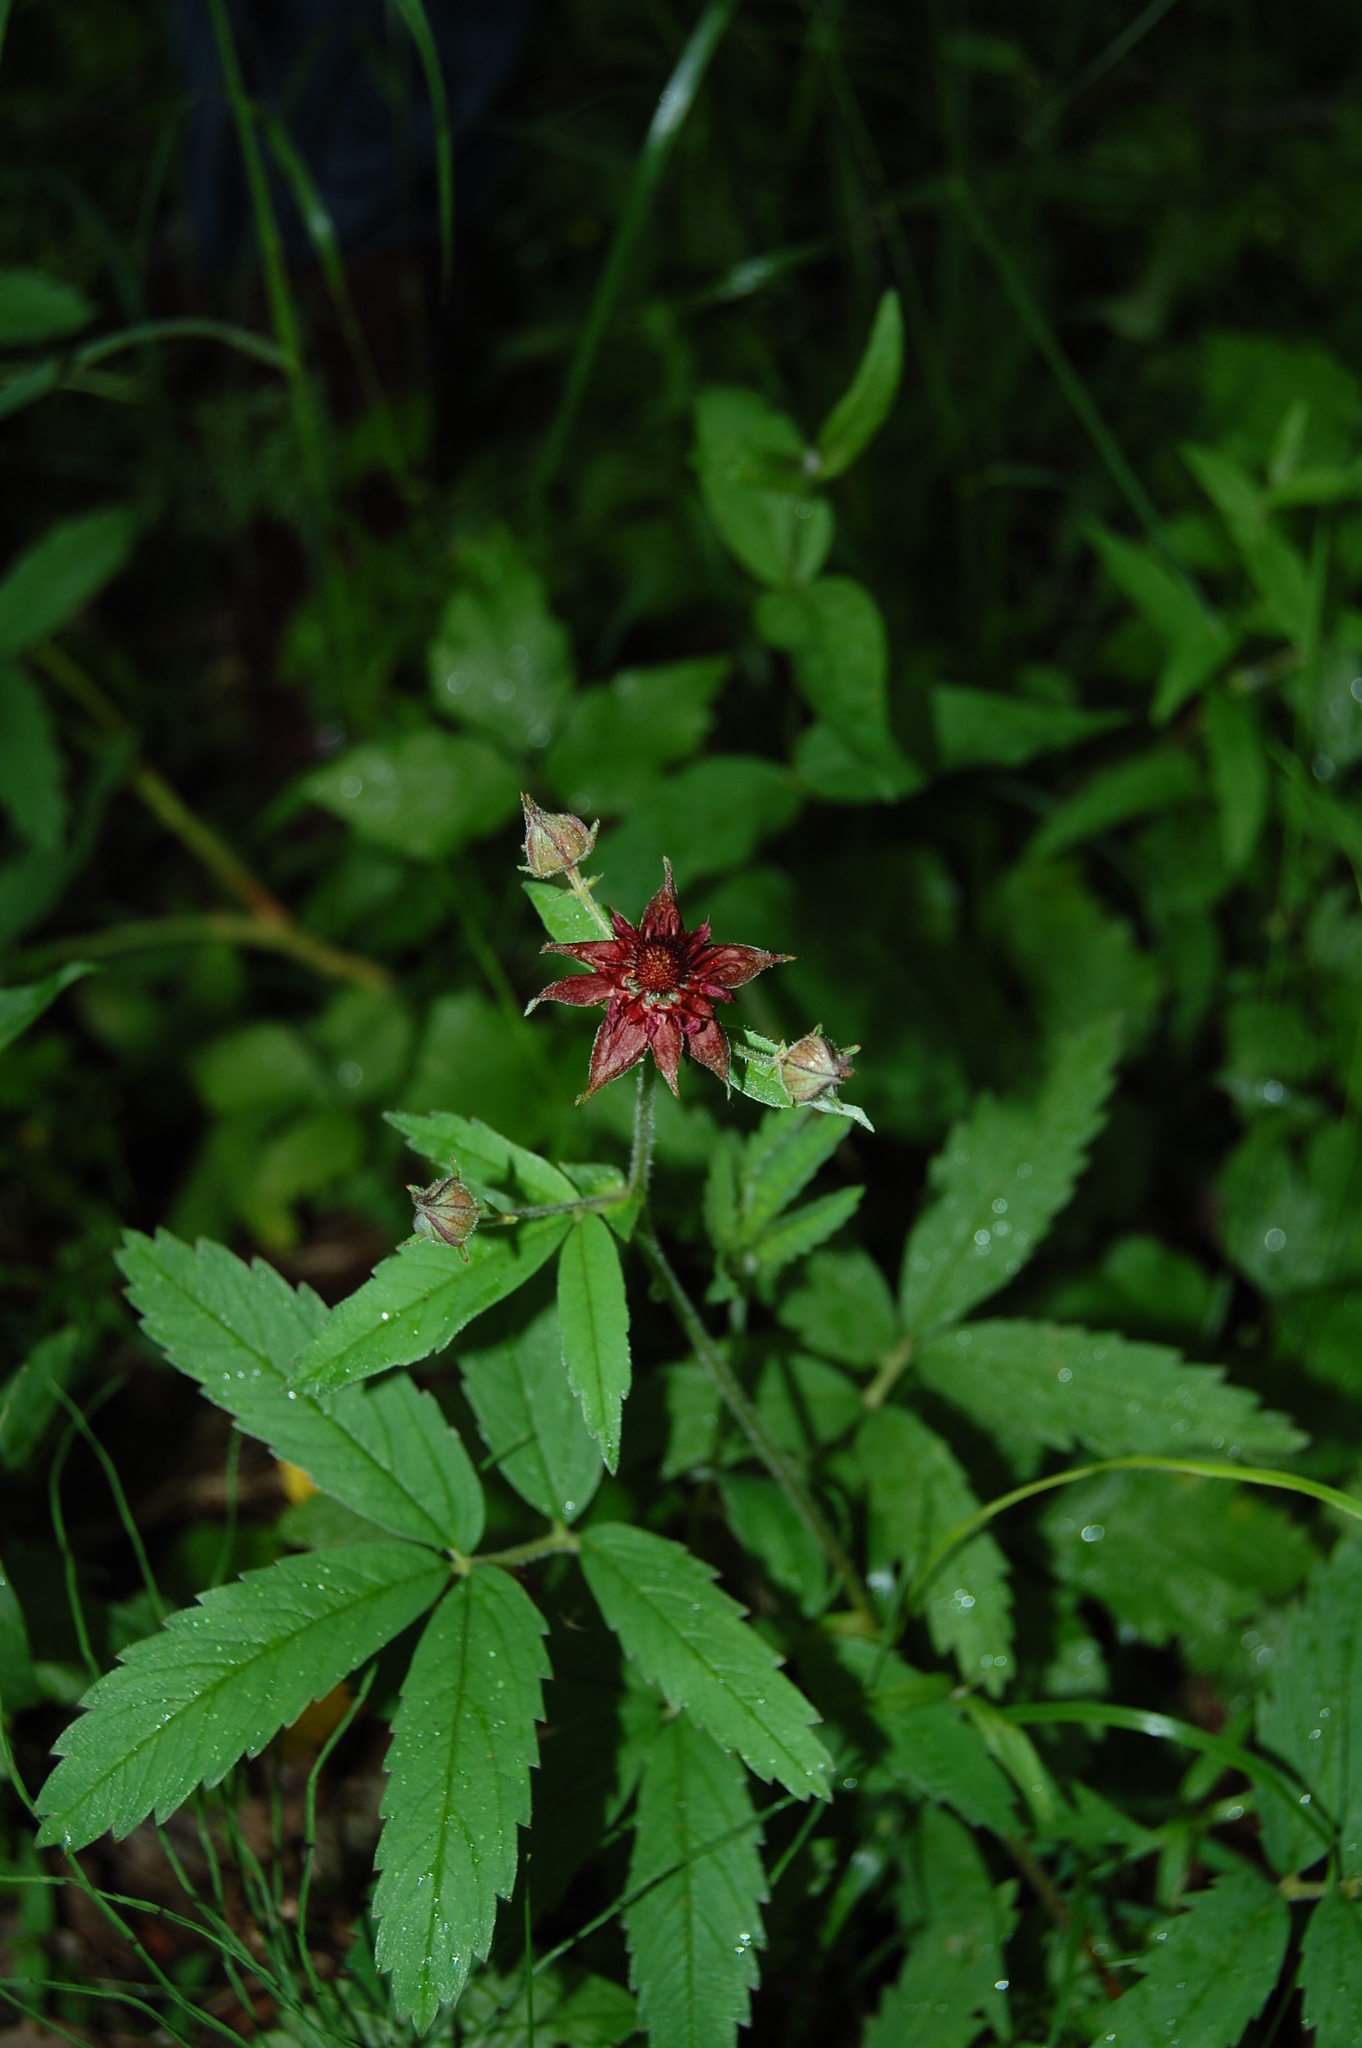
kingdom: Plantae
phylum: Tracheophyta
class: Magnoliopsida
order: Rosales
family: Rosaceae
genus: Comarum
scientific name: Comarum palustre
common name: Marsh cinquefoil
